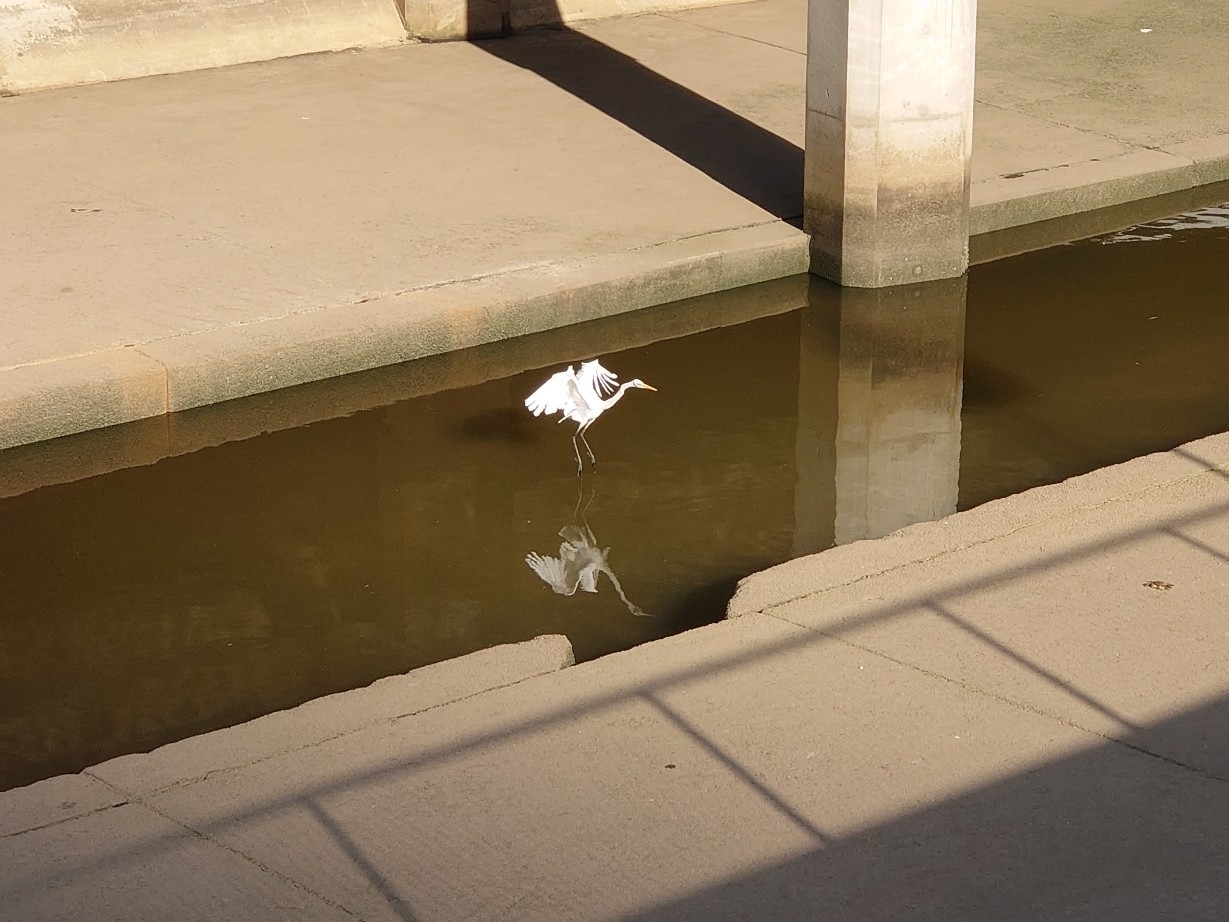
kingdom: Animalia
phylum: Chordata
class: Aves
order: Pelecaniformes
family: Ardeidae
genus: Ardea
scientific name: Ardea alba
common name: Great egret
